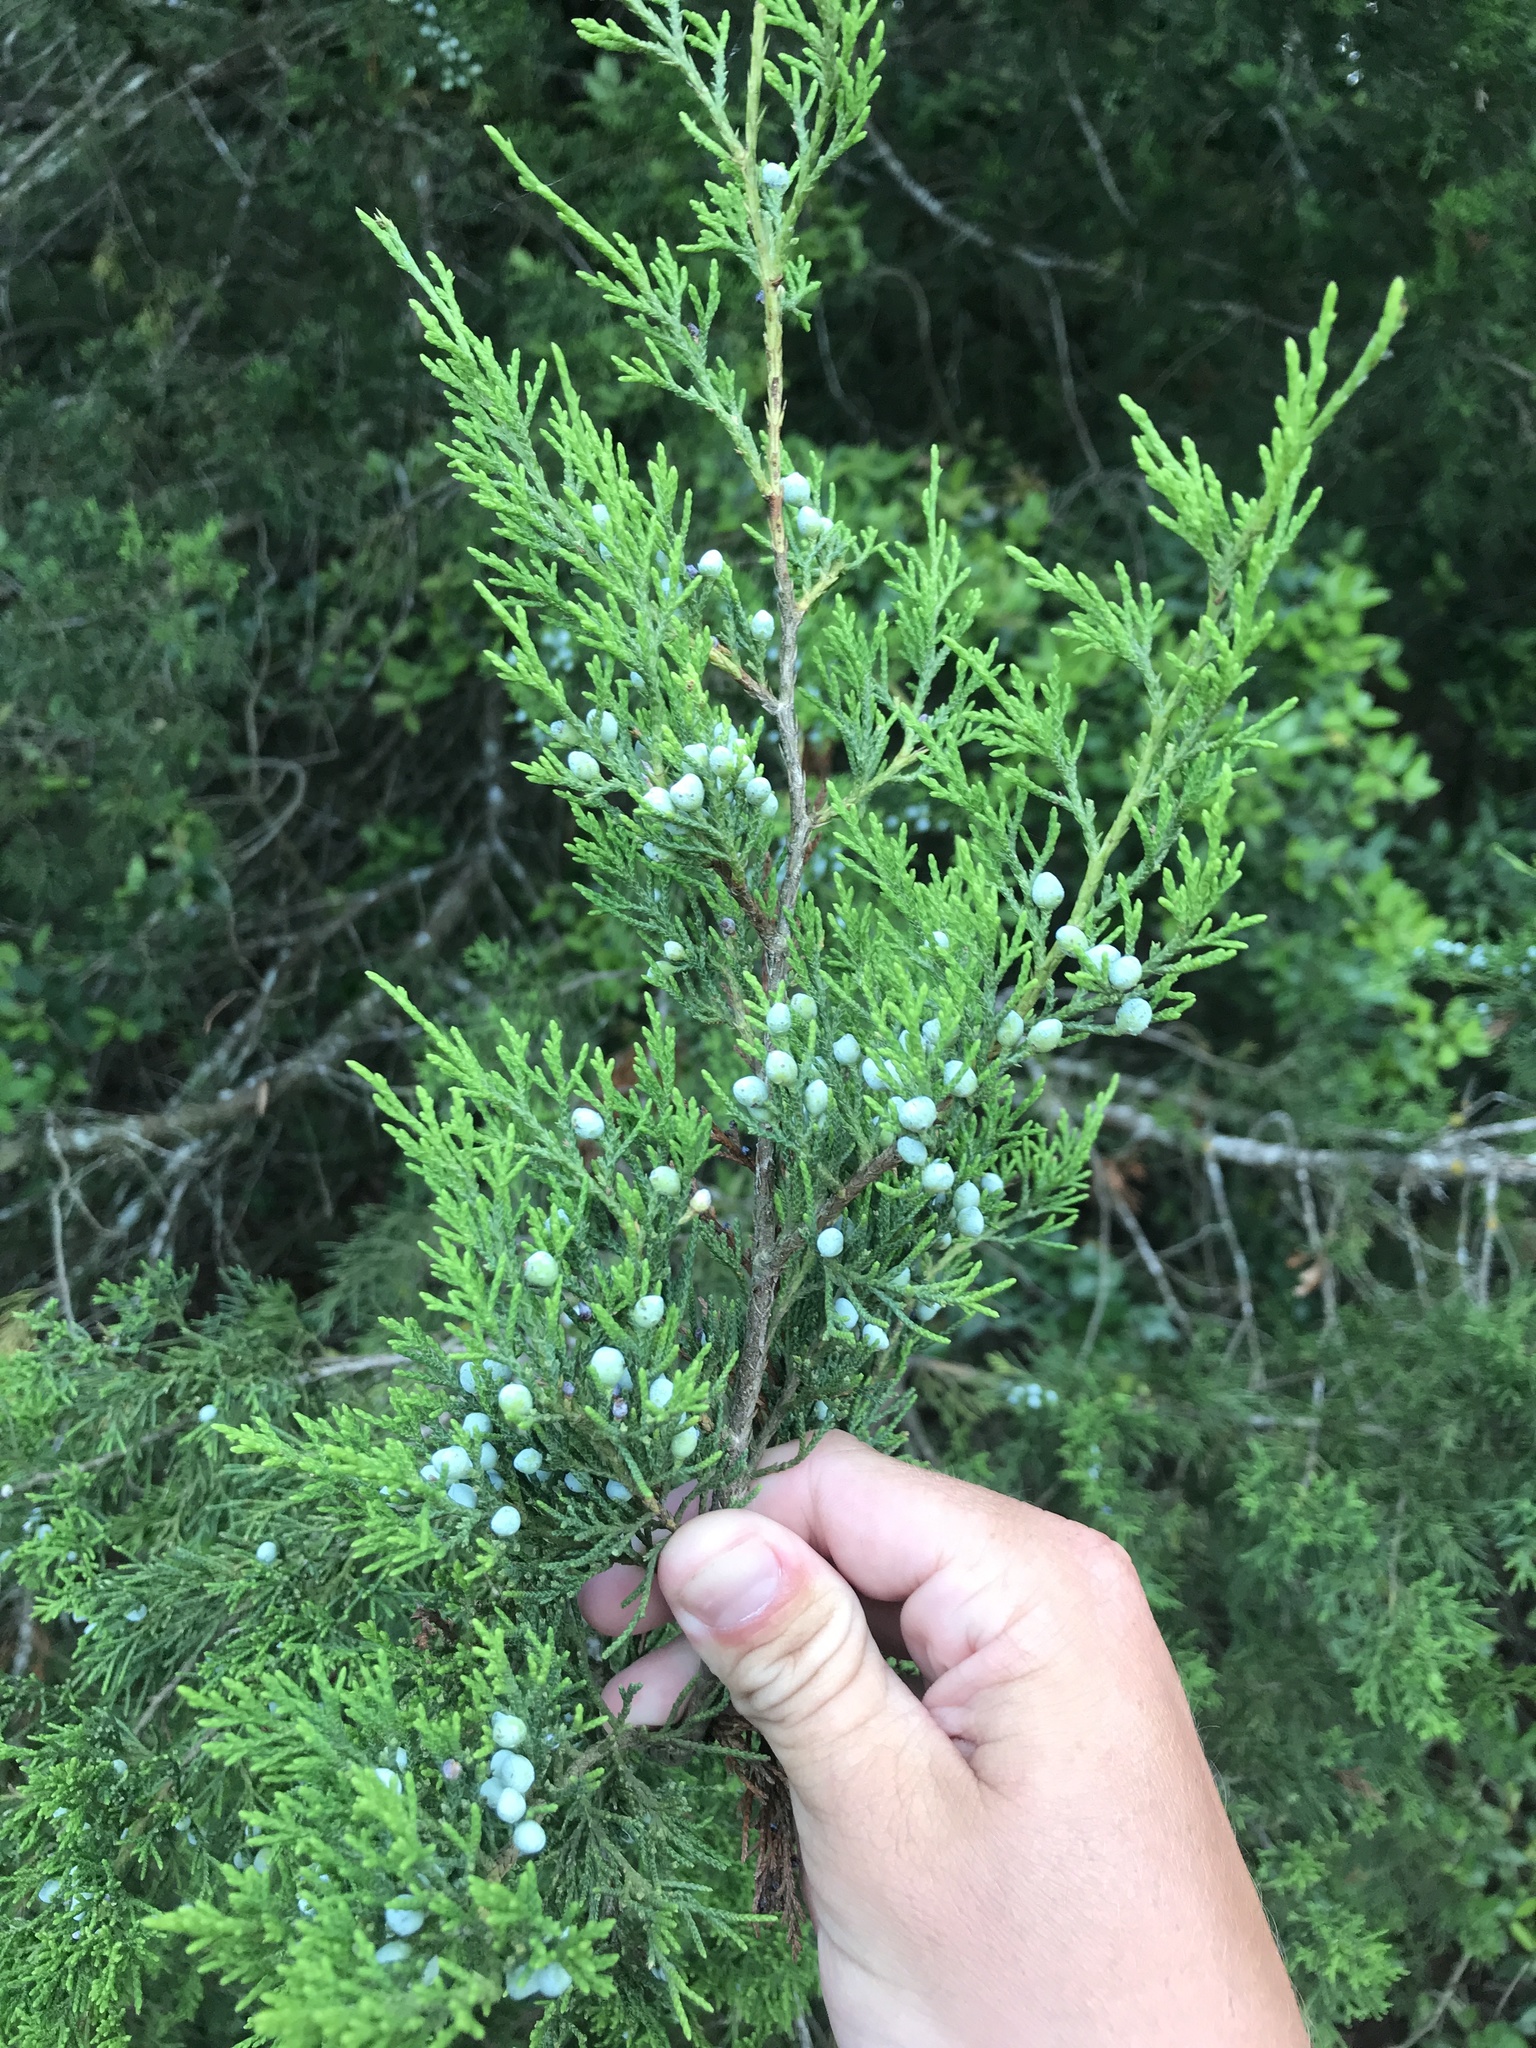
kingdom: Plantae
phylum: Tracheophyta
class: Pinopsida
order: Pinales
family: Cupressaceae
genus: Juniperus
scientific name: Juniperus virginiana
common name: Red juniper
